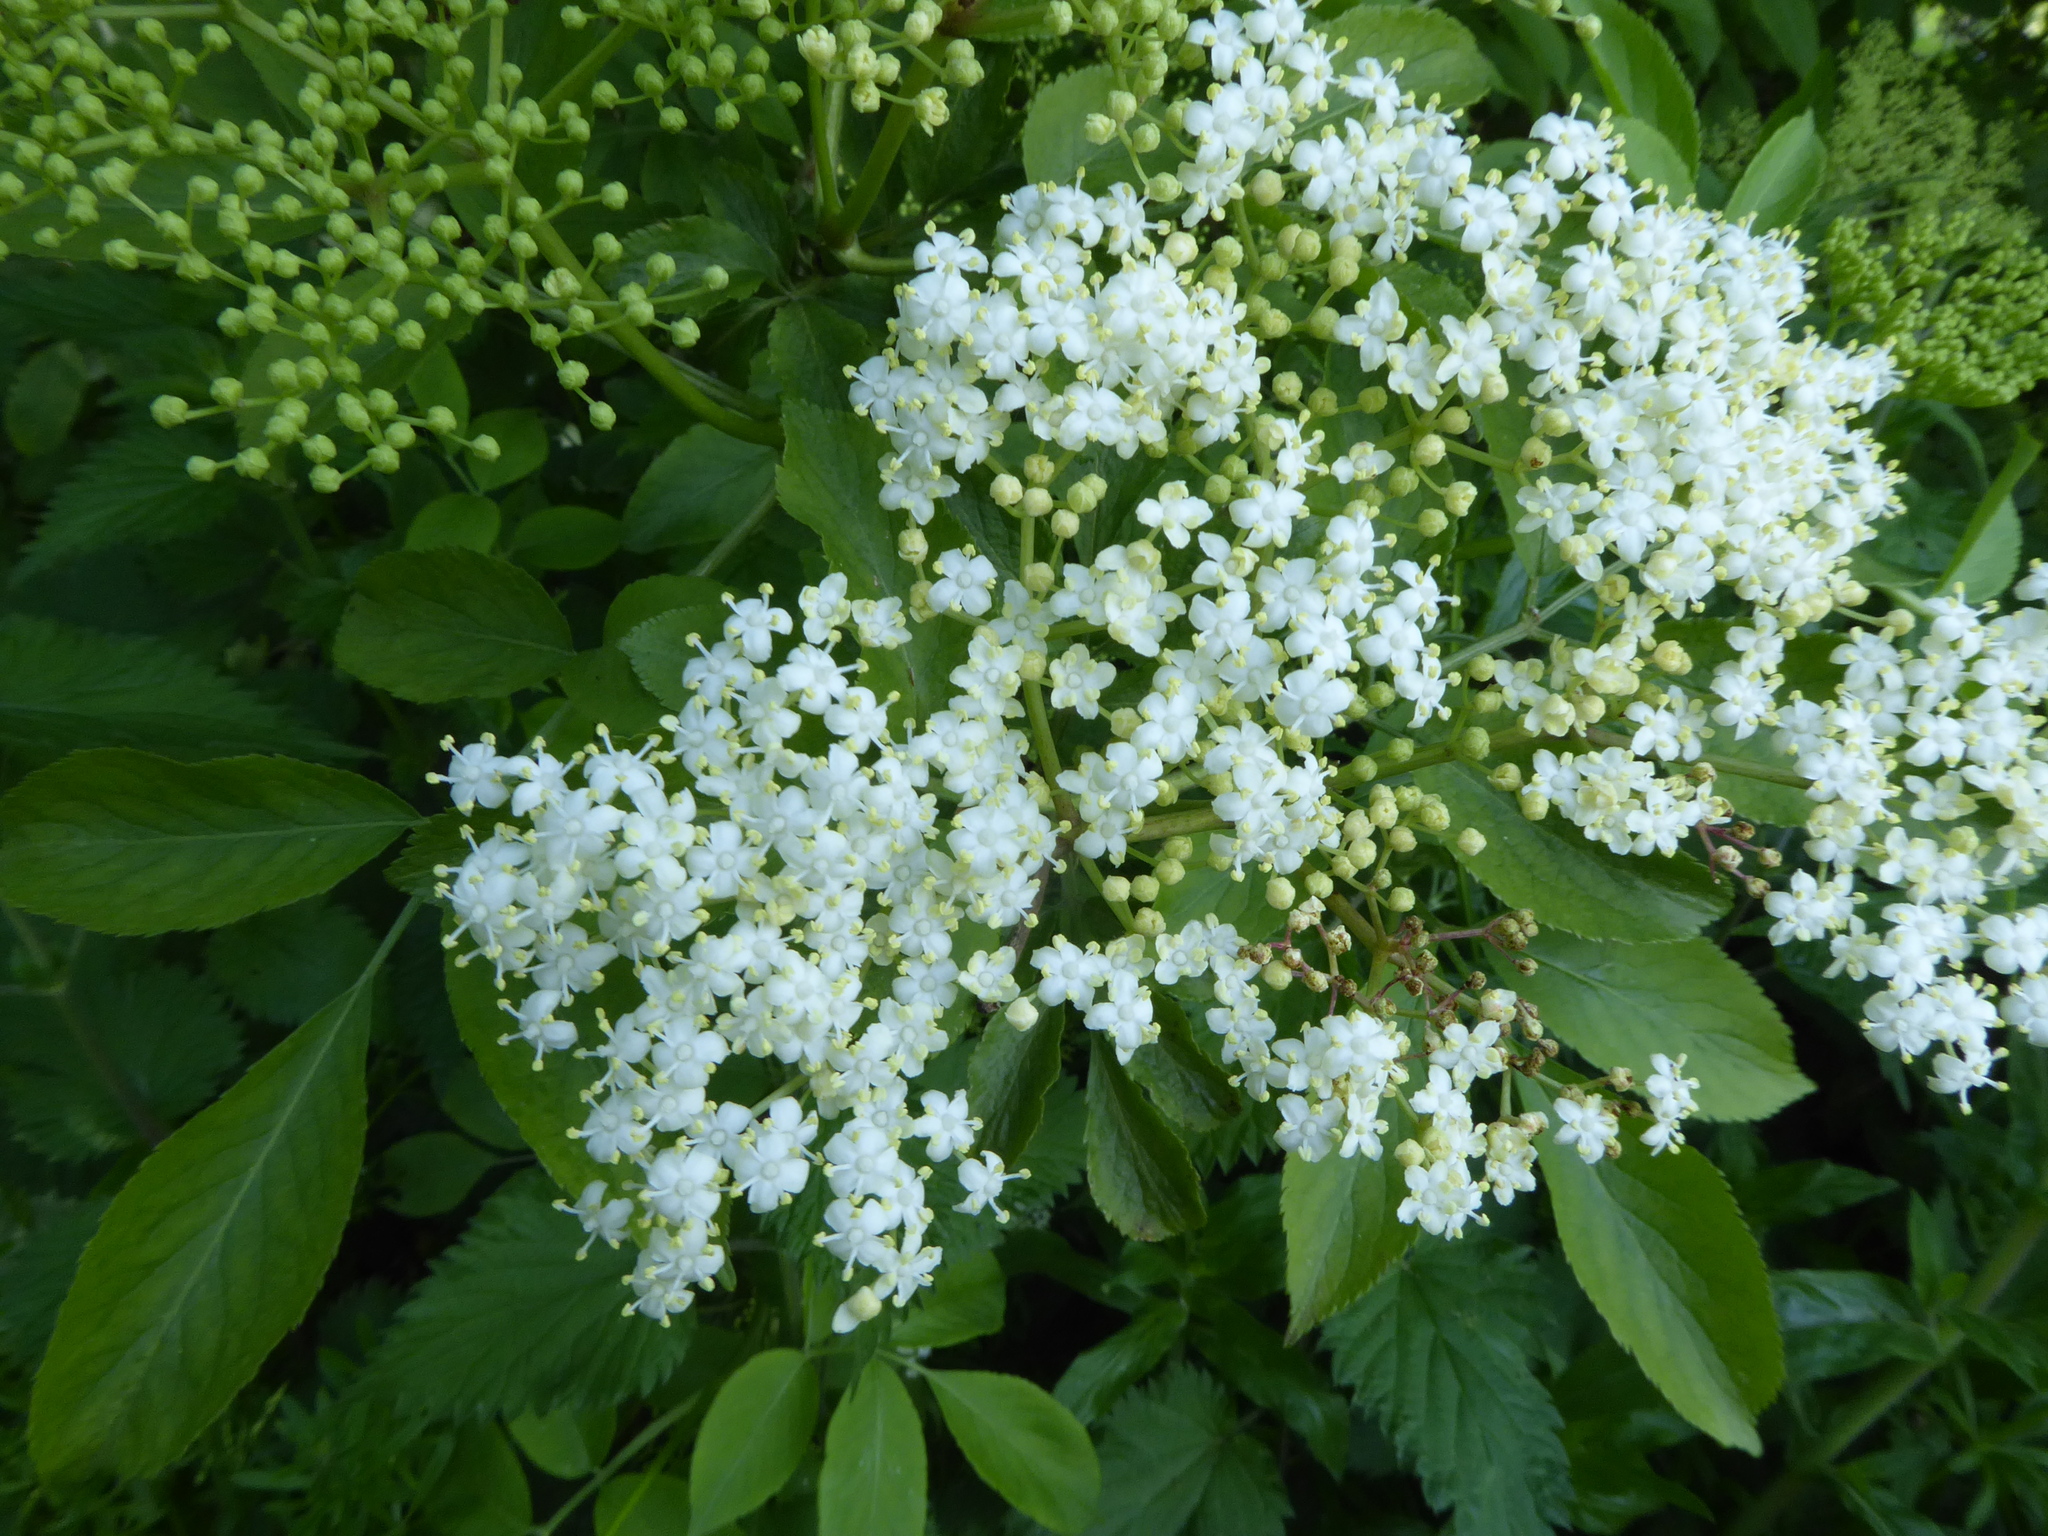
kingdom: Plantae
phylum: Tracheophyta
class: Magnoliopsida
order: Dipsacales
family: Viburnaceae
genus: Sambucus
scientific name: Sambucus nigra
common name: Elder
